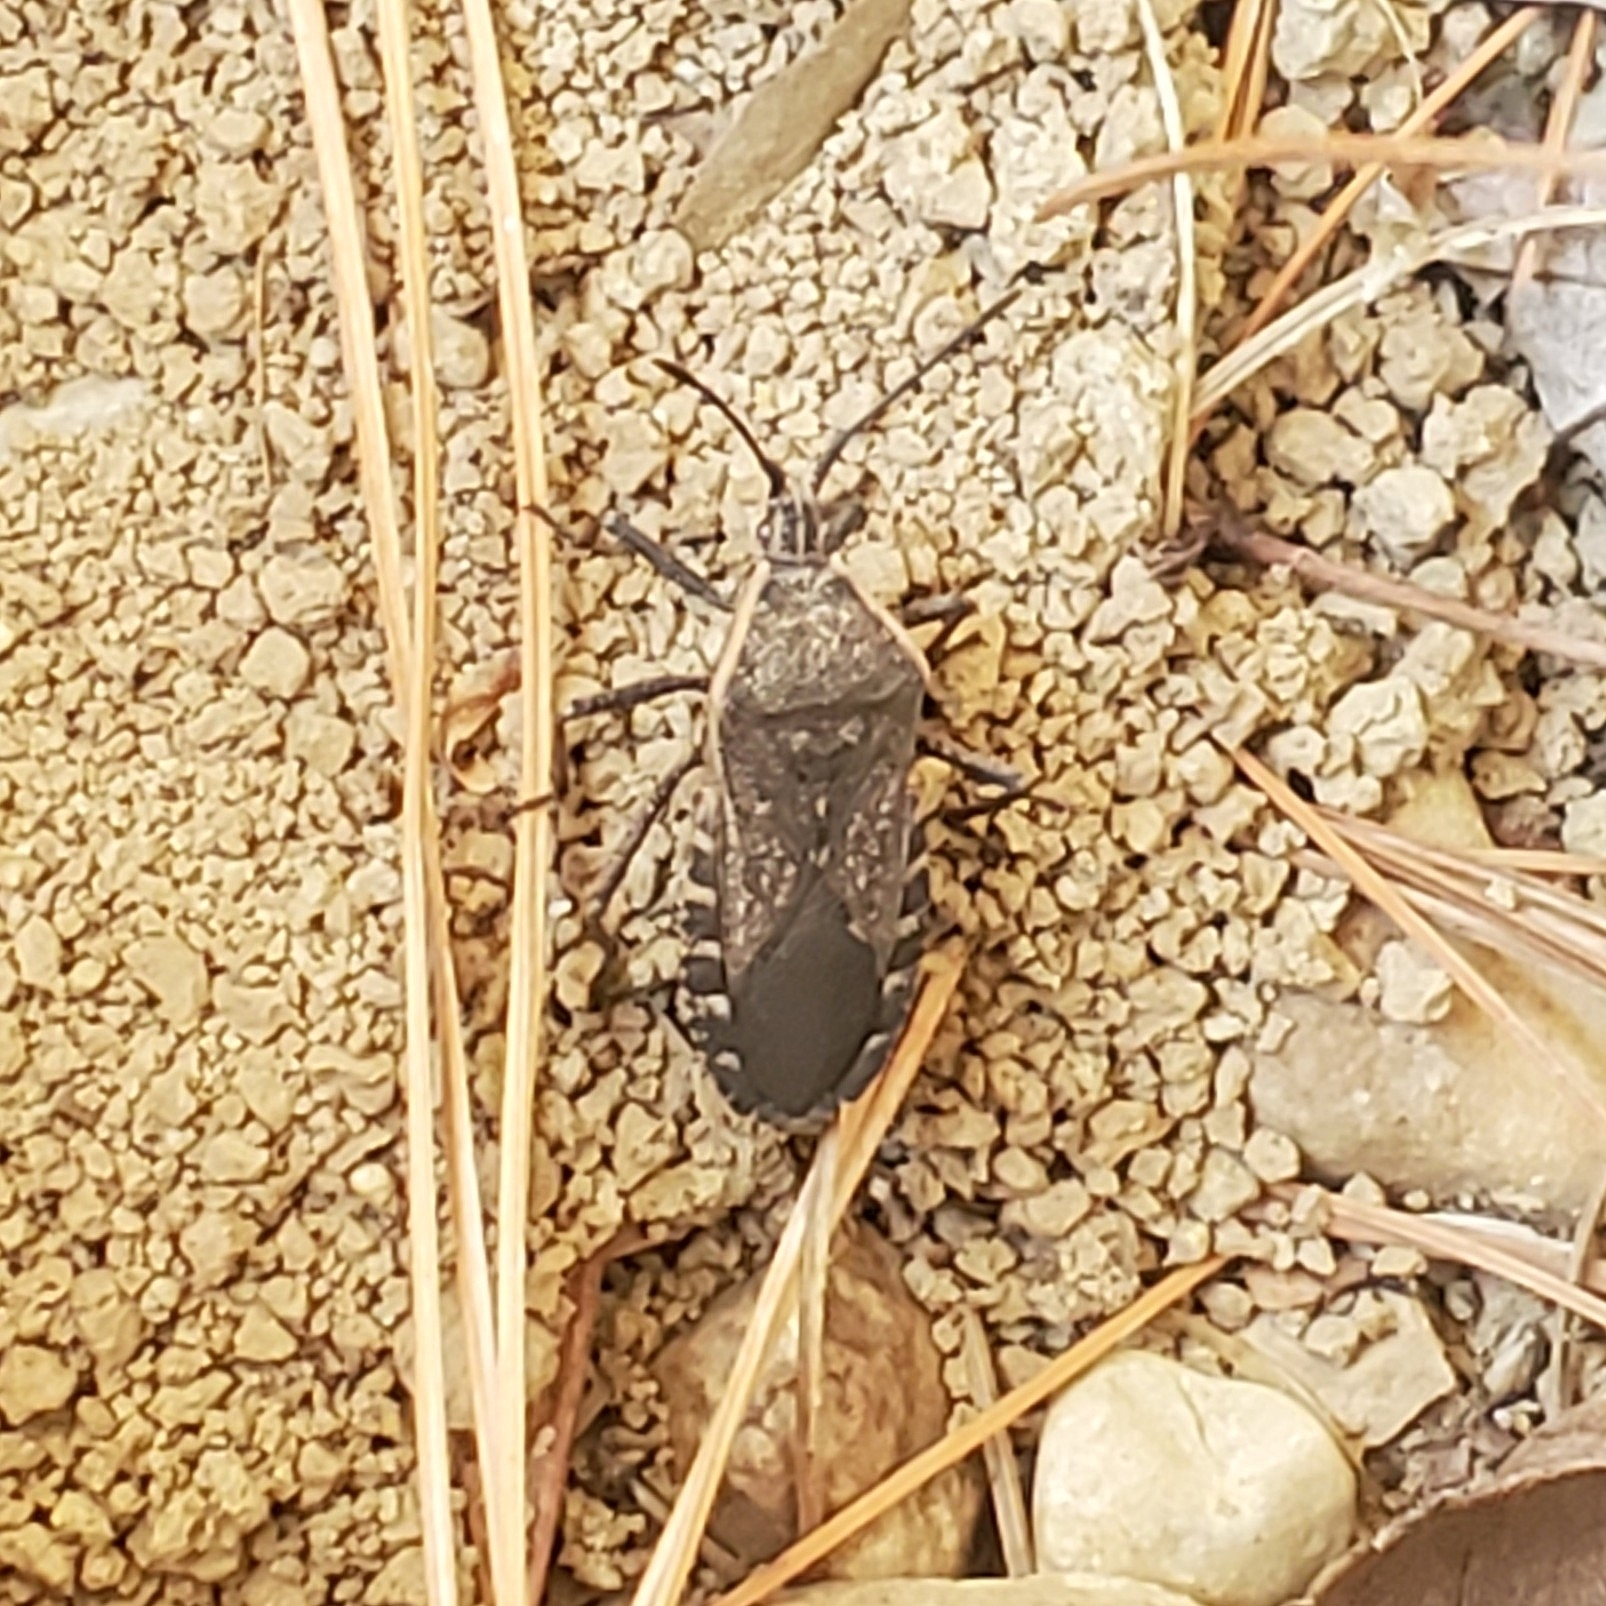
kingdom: Animalia
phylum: Arthropoda
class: Insecta
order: Hemiptera
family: Coreidae
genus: Anasa
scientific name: Anasa tristis
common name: Squash bug
